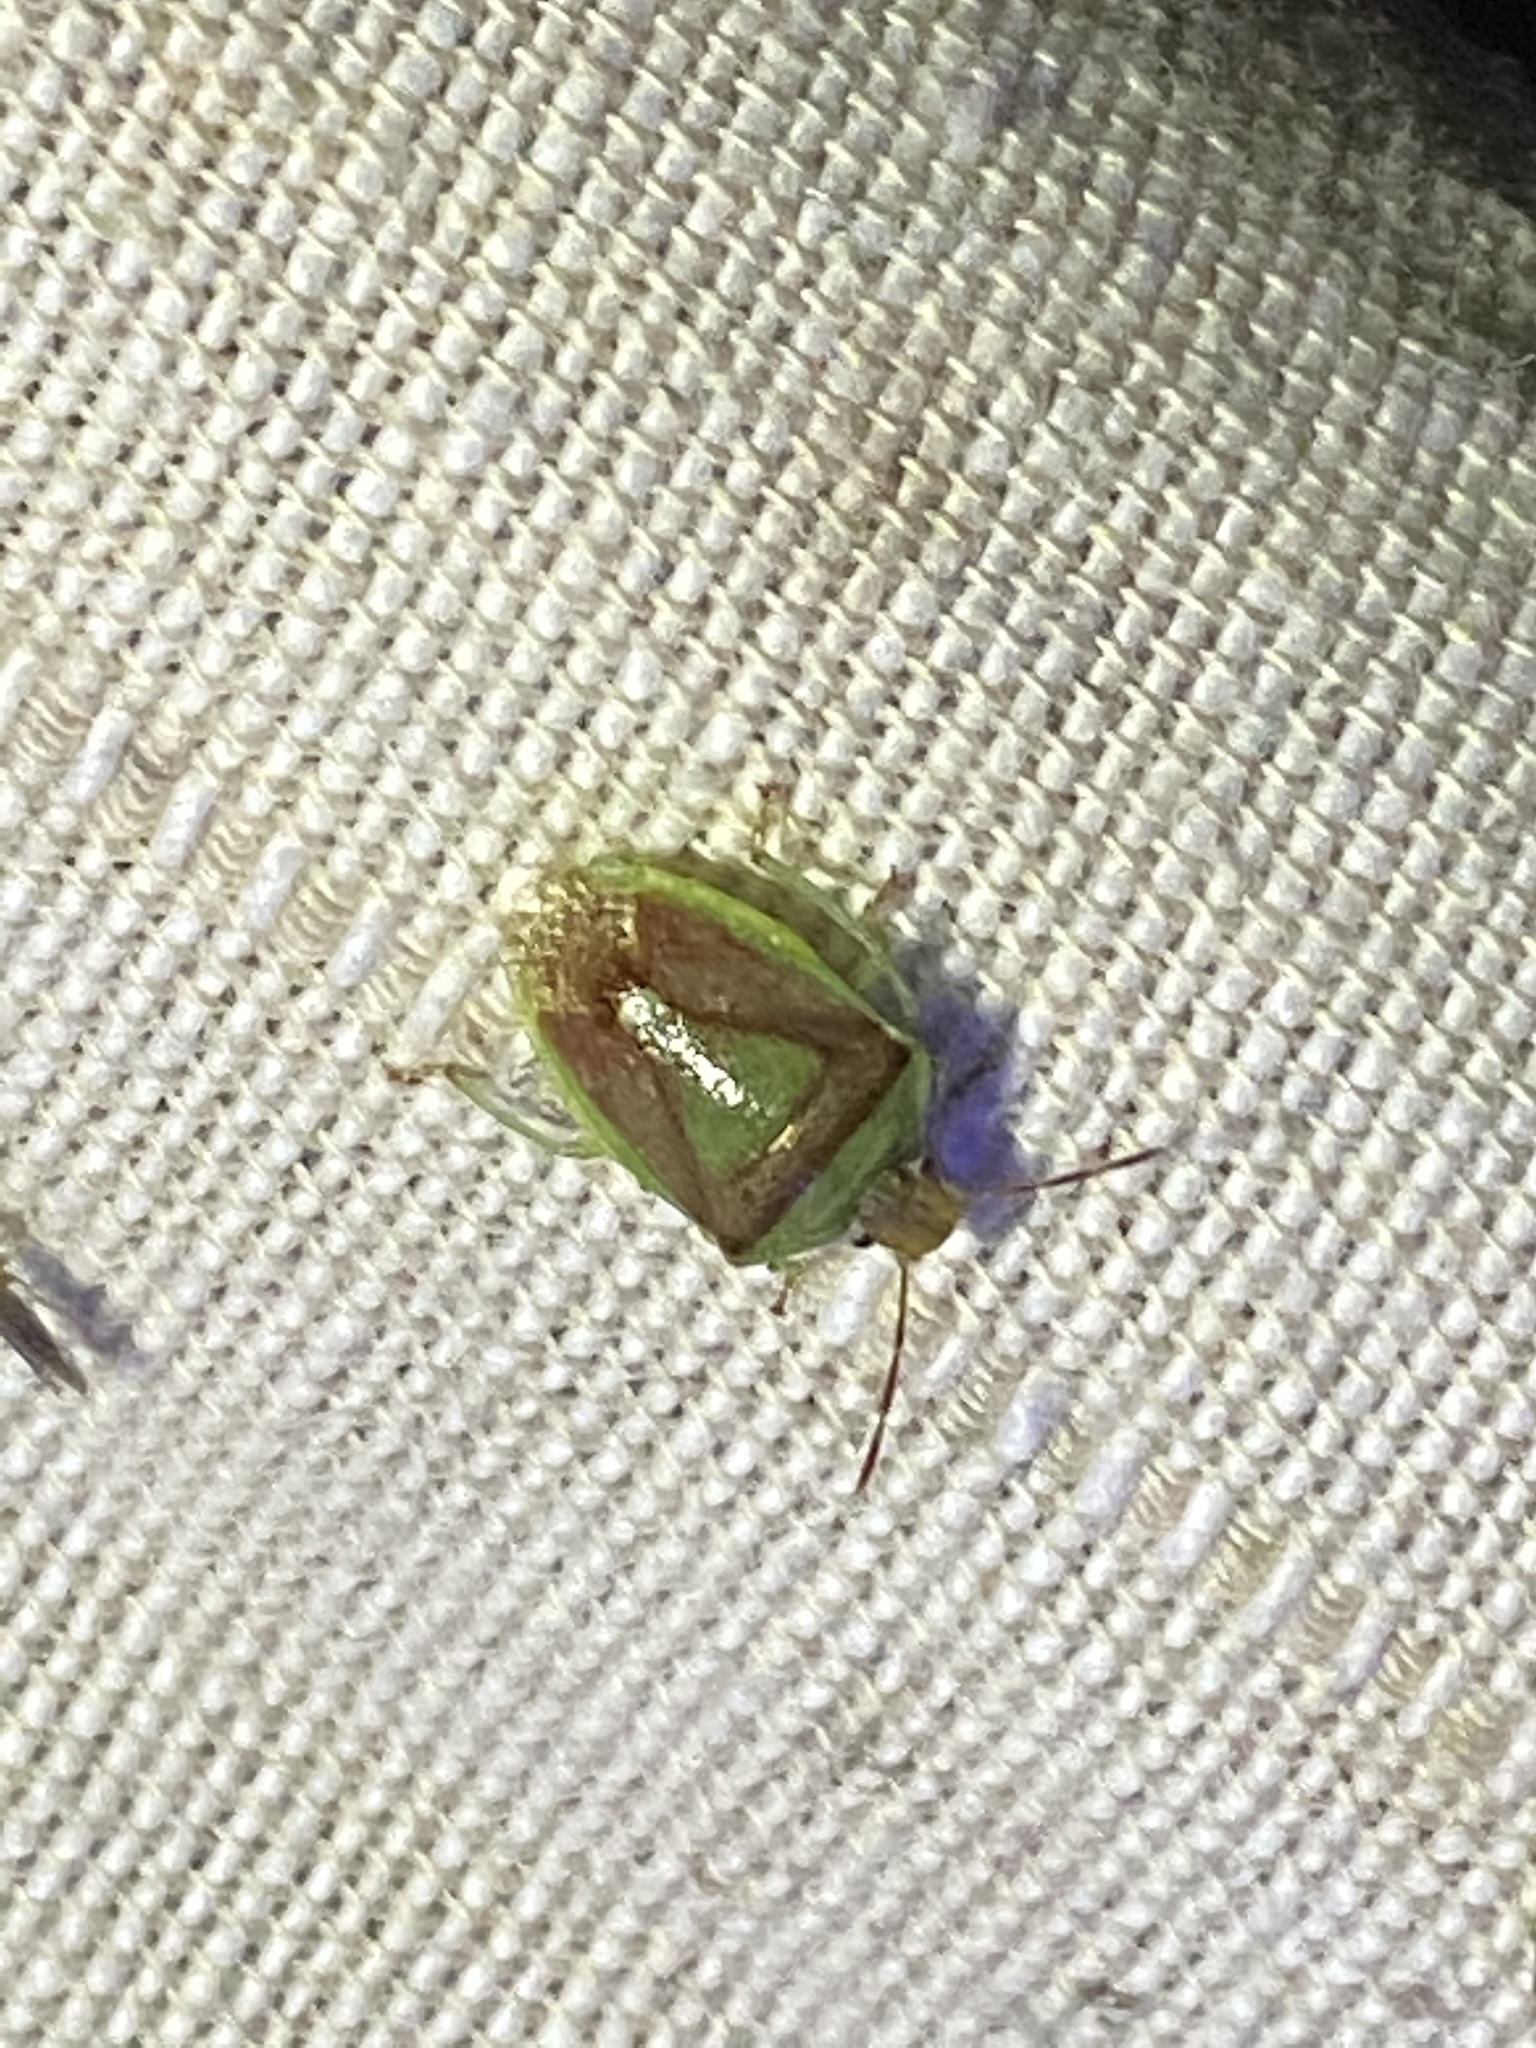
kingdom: Animalia
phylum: Arthropoda
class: Insecta
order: Hemiptera
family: Pentatomidae
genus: Banasa
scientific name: Banasa dimidiata
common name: Green burgundy stink bug
